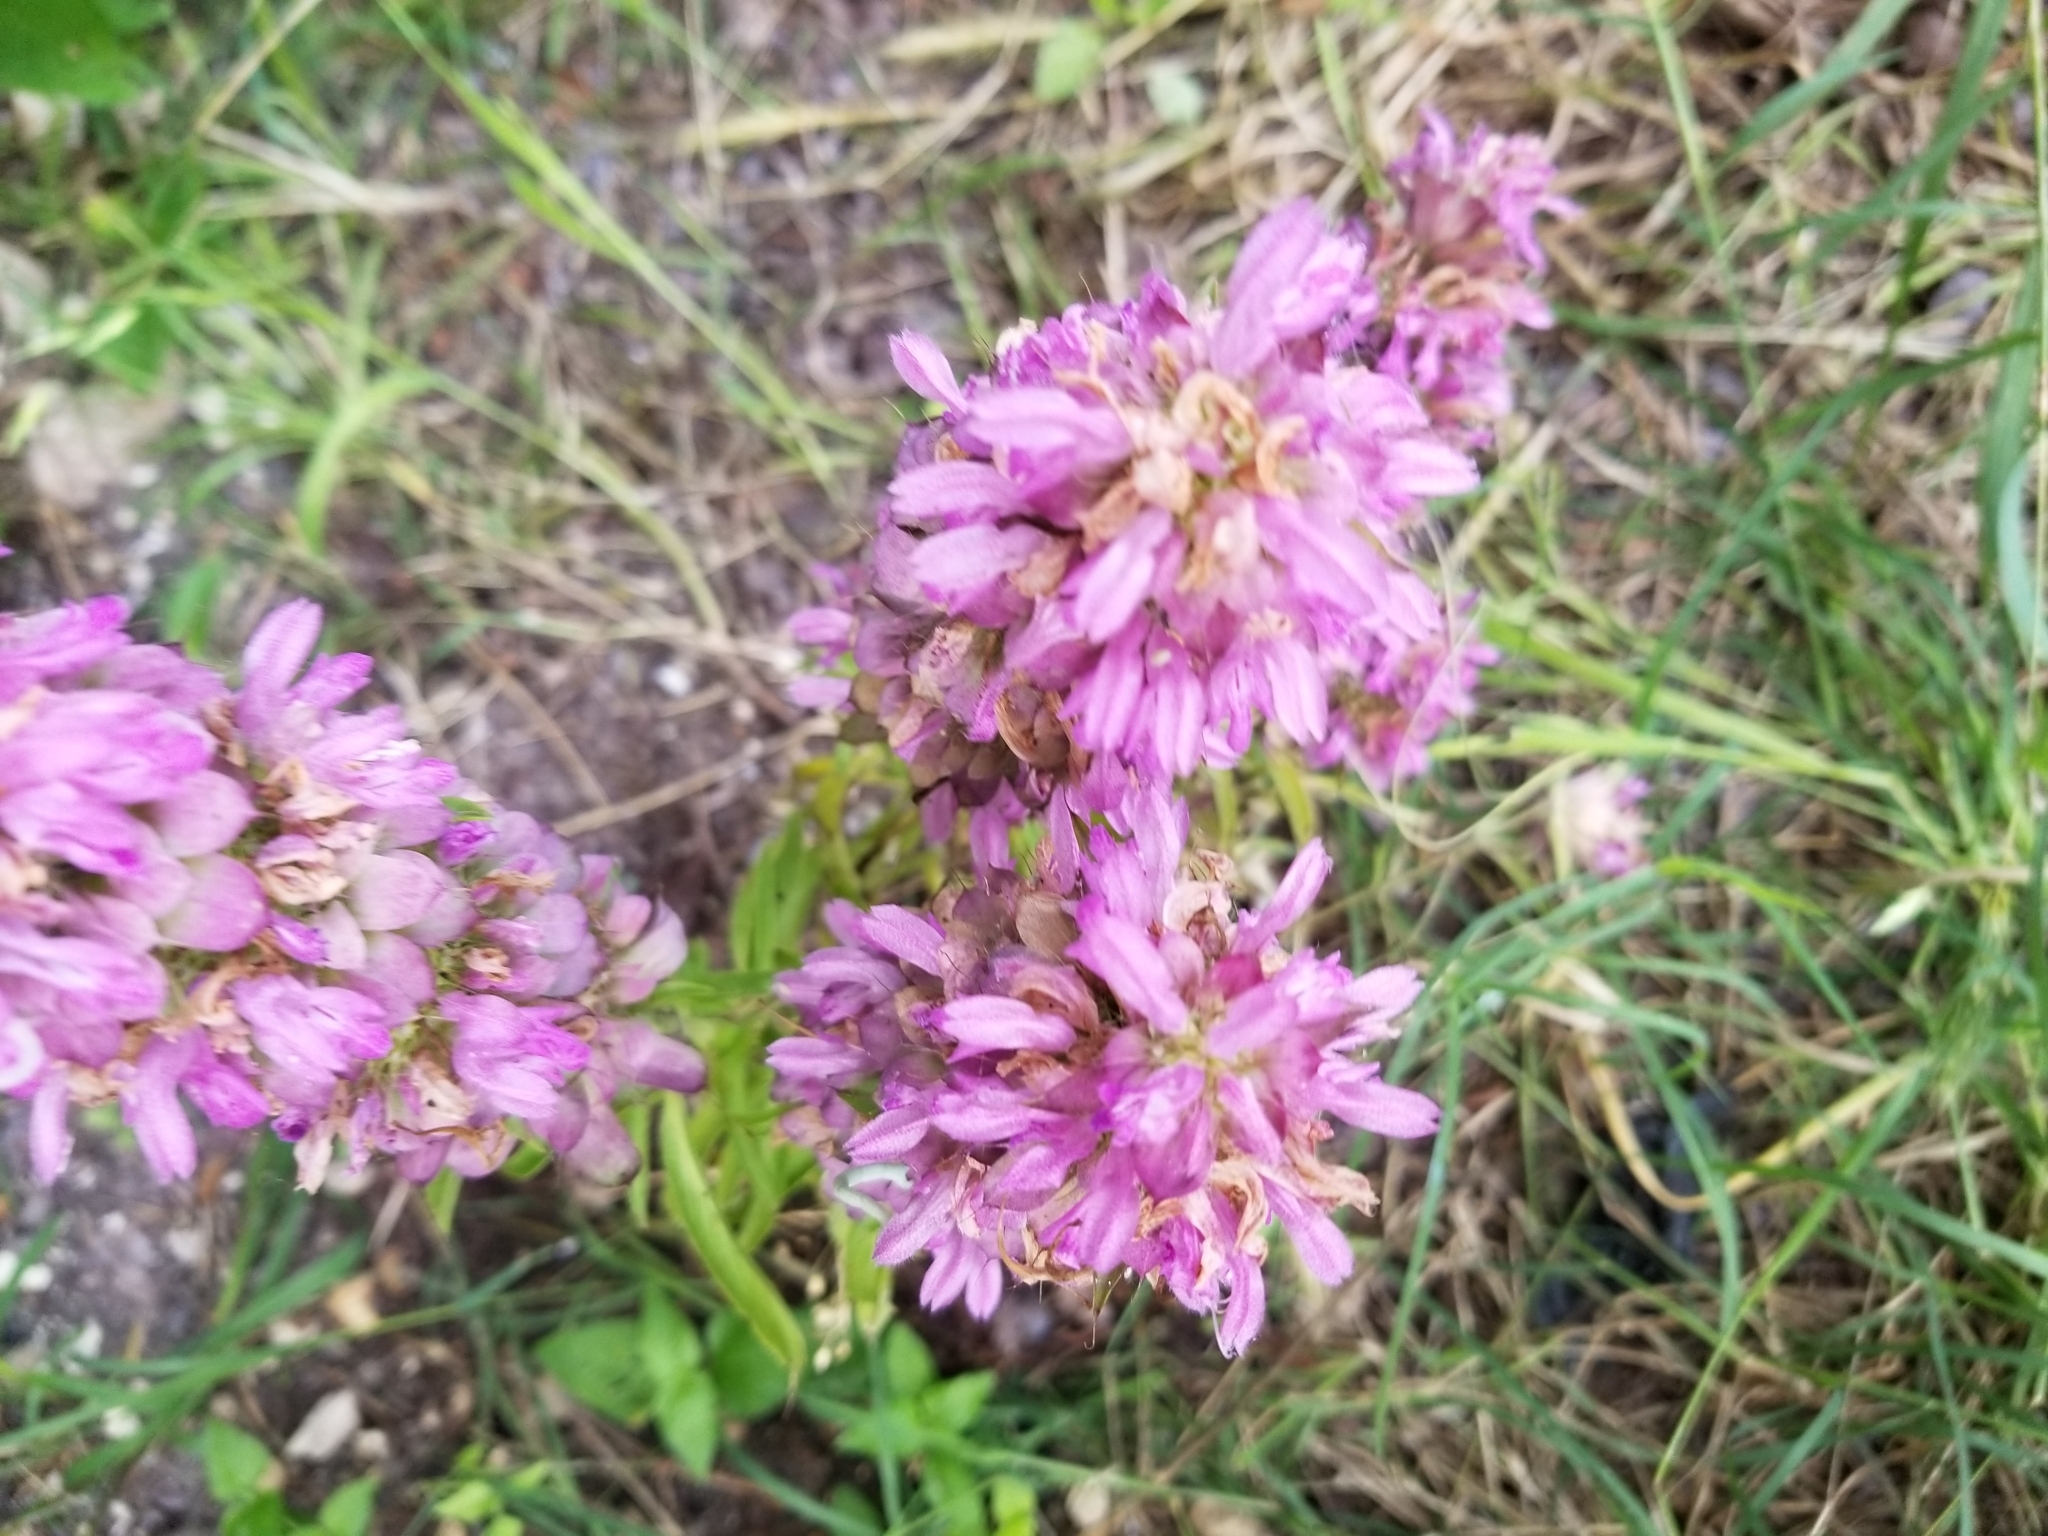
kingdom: Plantae
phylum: Tracheophyta
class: Magnoliopsida
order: Lamiales
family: Lamiaceae
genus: Monarda
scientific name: Monarda citriodora
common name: Lemon beebalm
